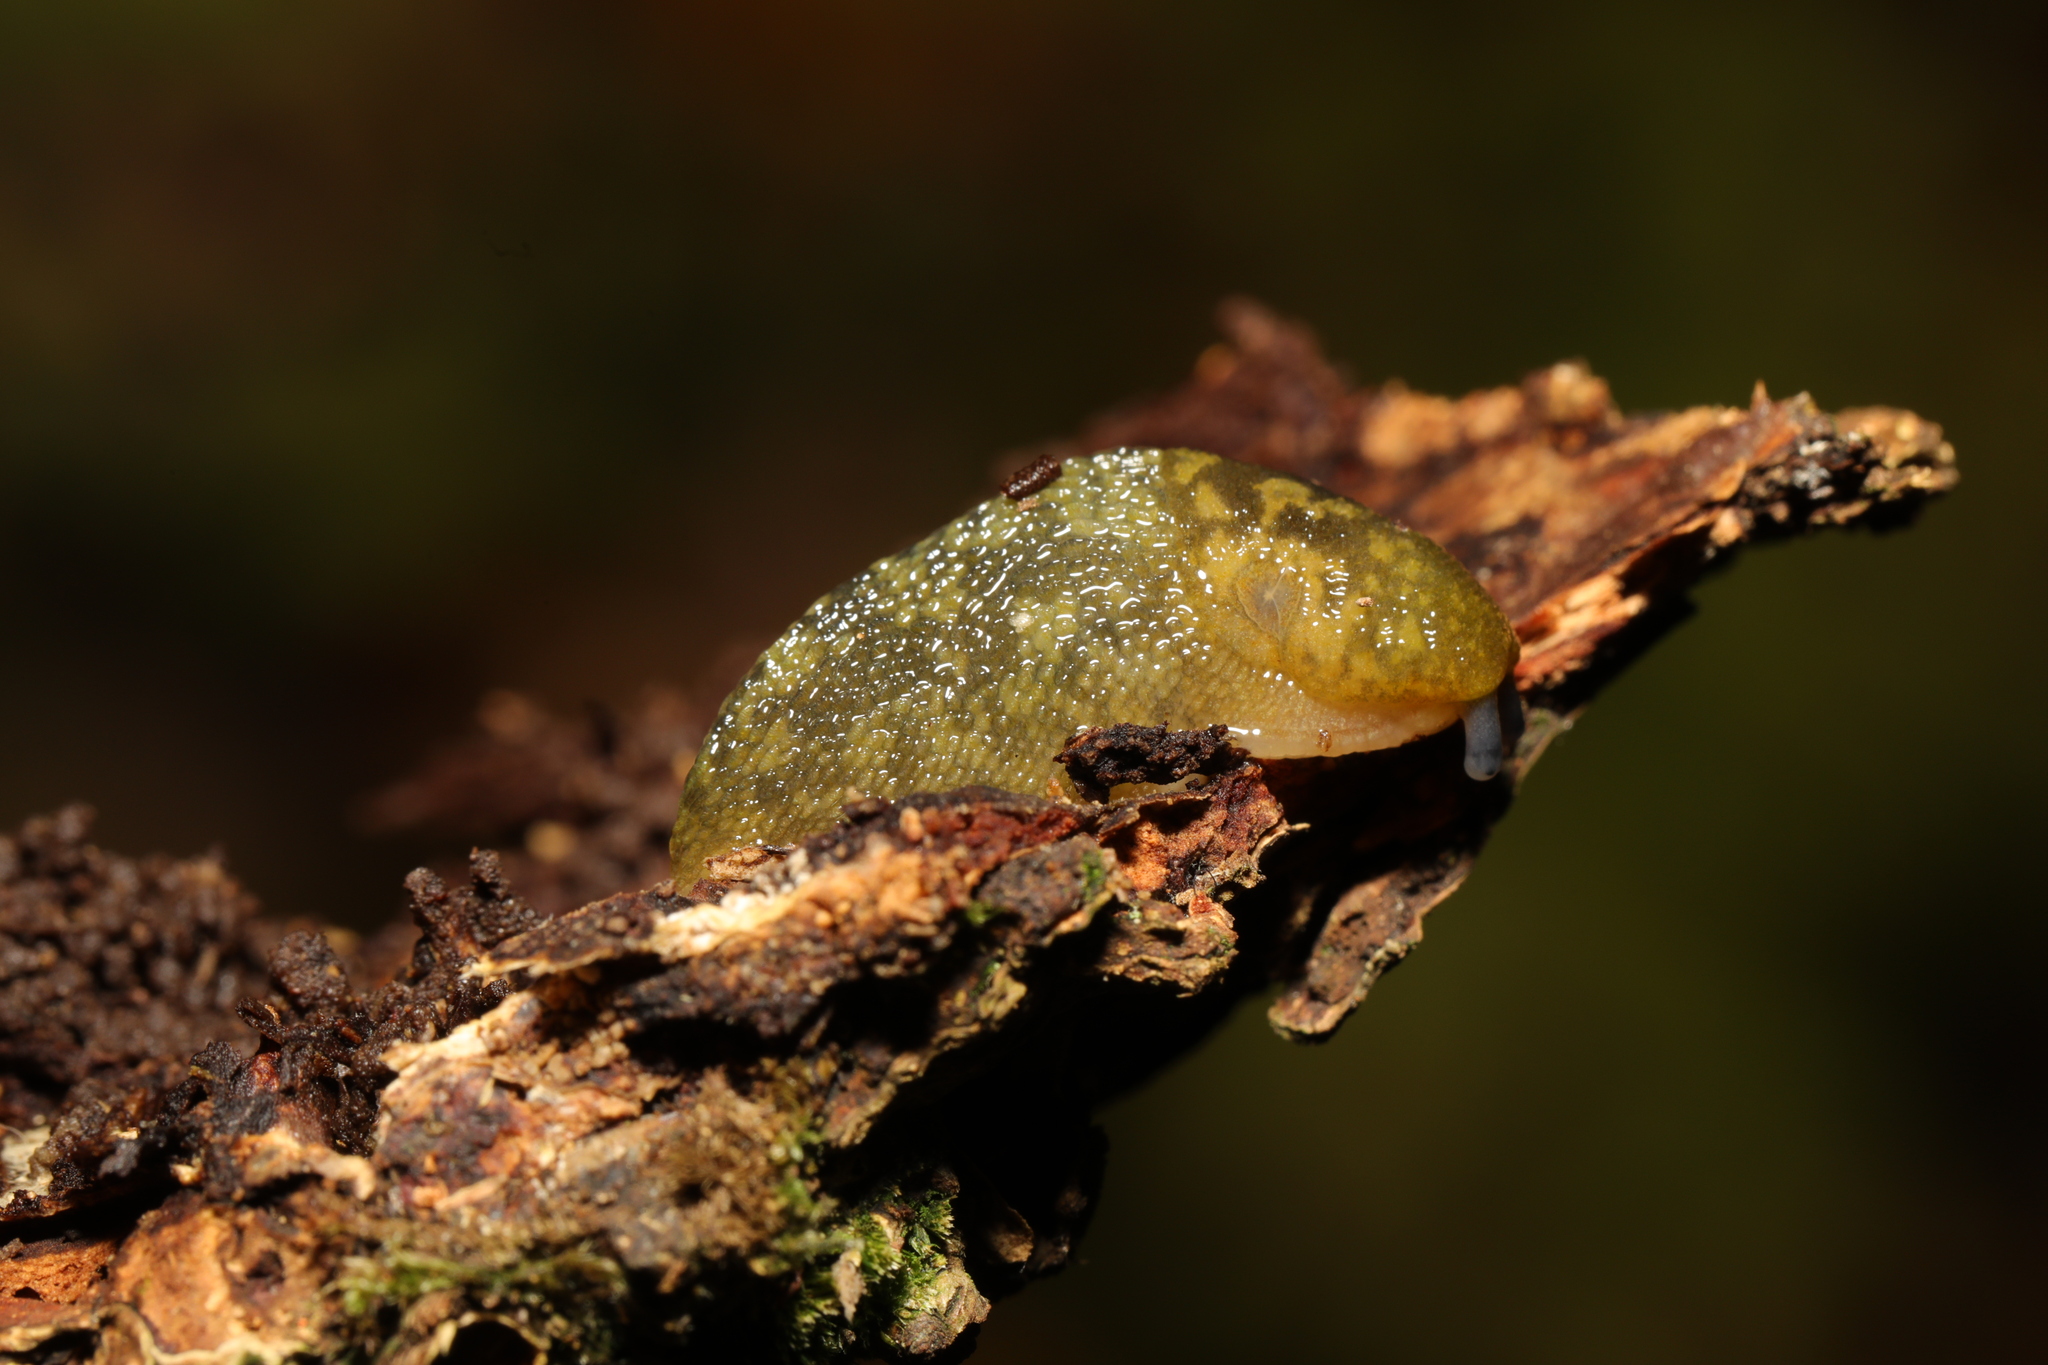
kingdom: Animalia
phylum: Mollusca
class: Gastropoda
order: Stylommatophora
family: Limacidae
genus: Limacus
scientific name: Limacus maculatus
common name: Irish yellow slug
